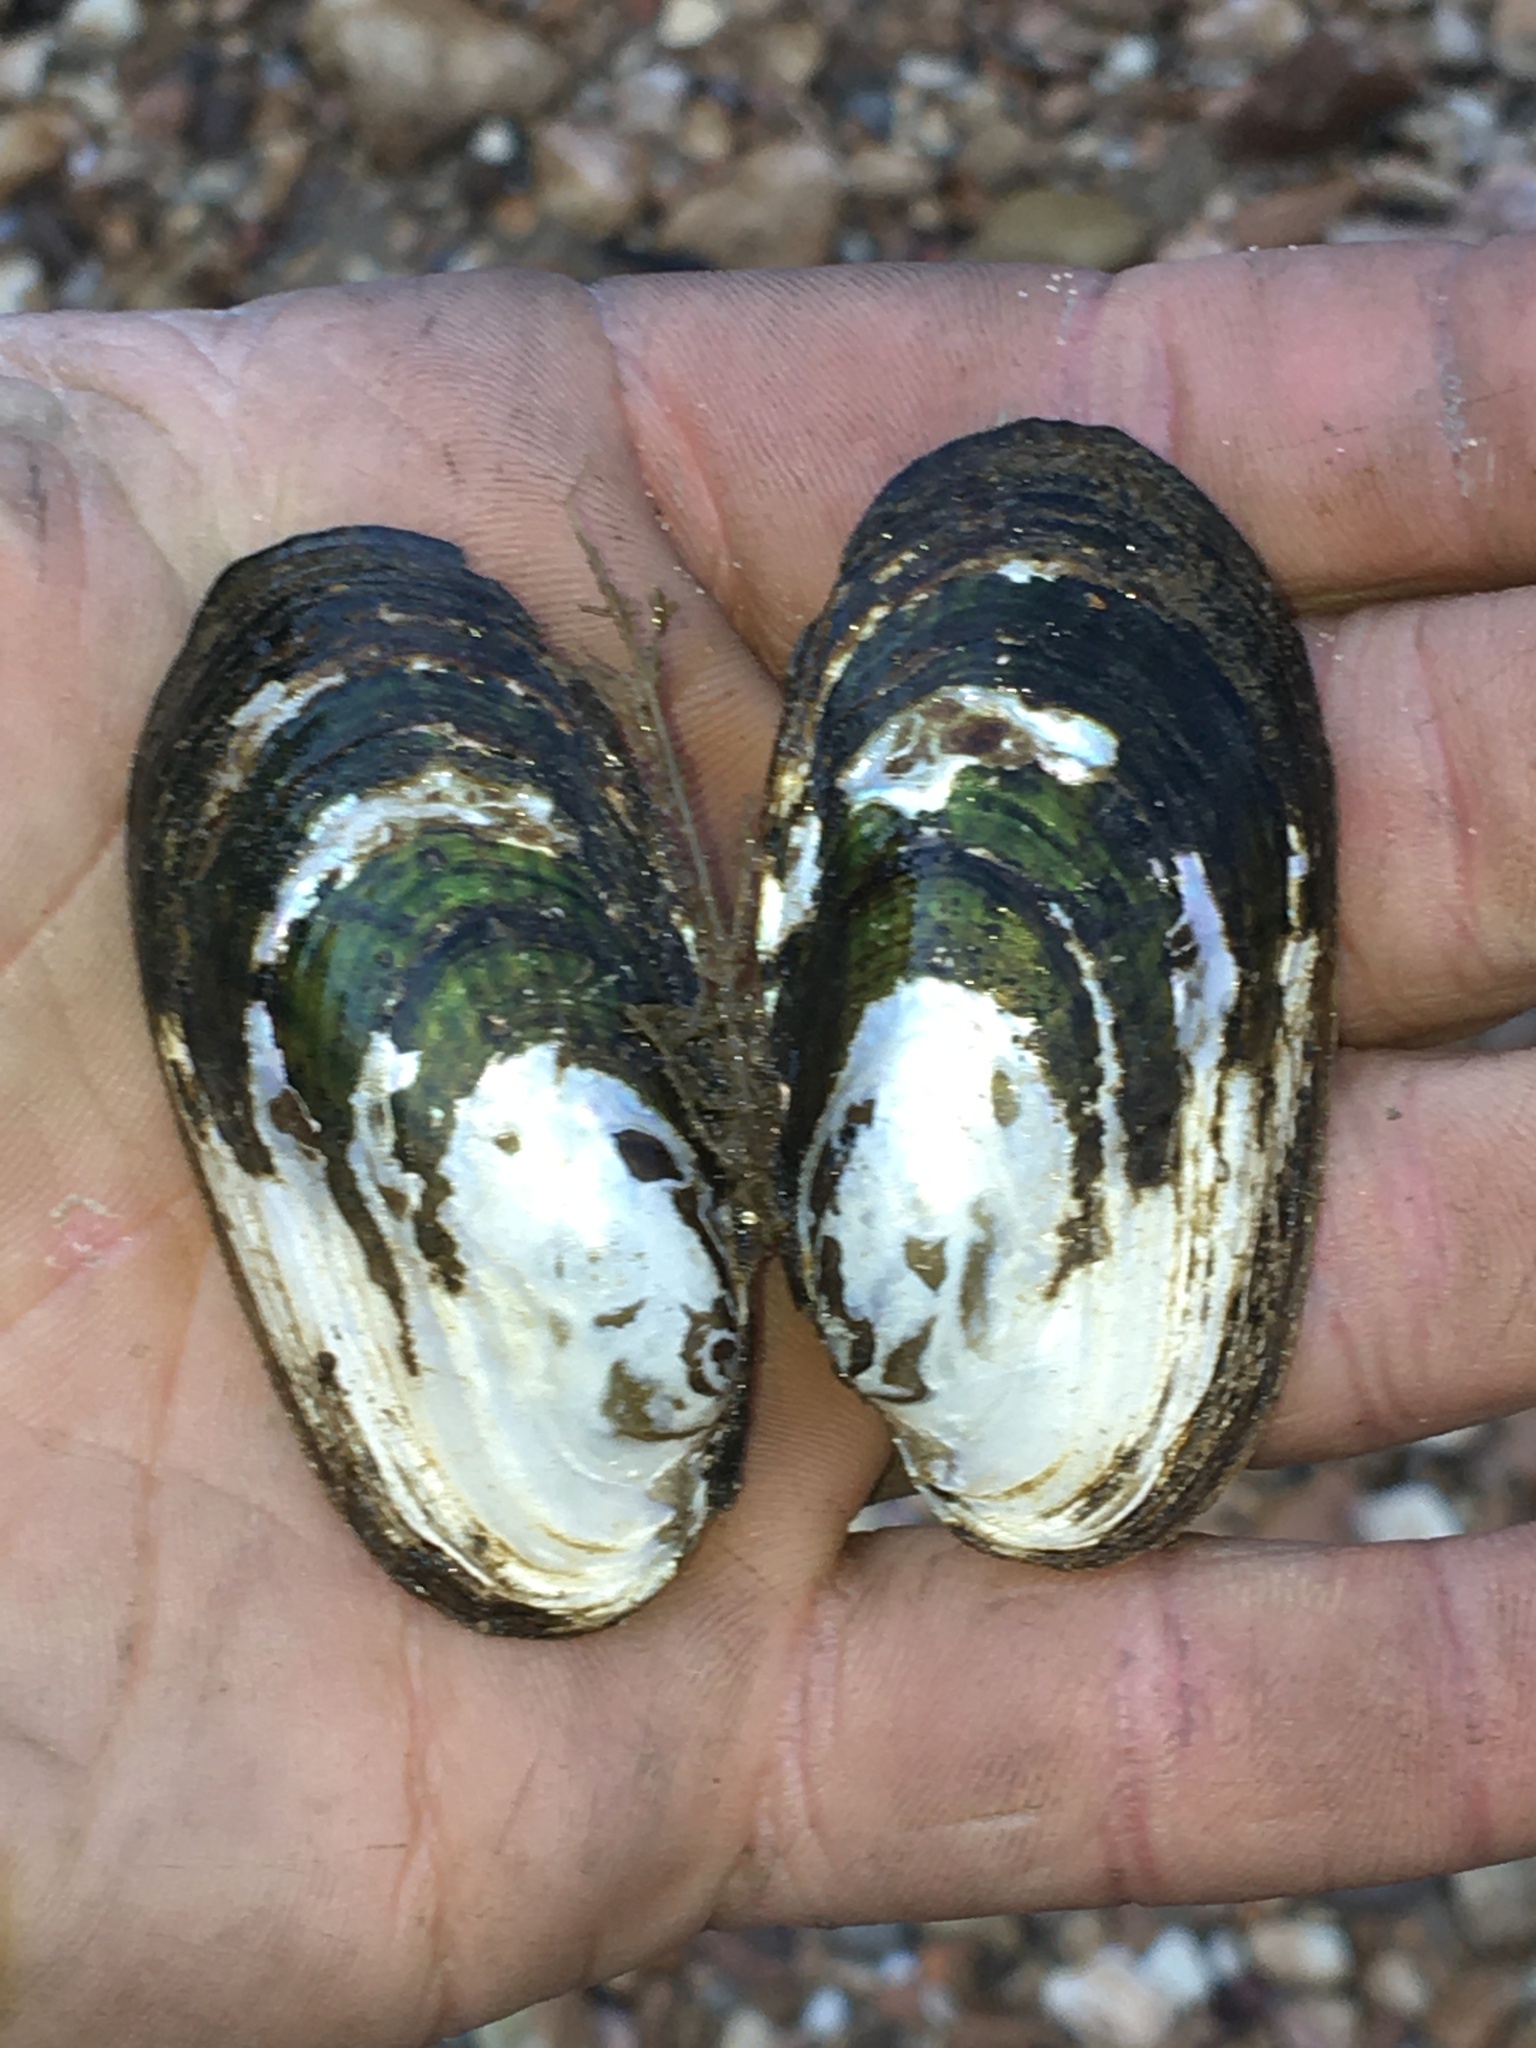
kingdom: Animalia
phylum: Mollusca
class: Bivalvia
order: Unionida
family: Unionidae
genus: Cambarunio
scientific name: Cambarunio hesperus
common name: Western rainbow
